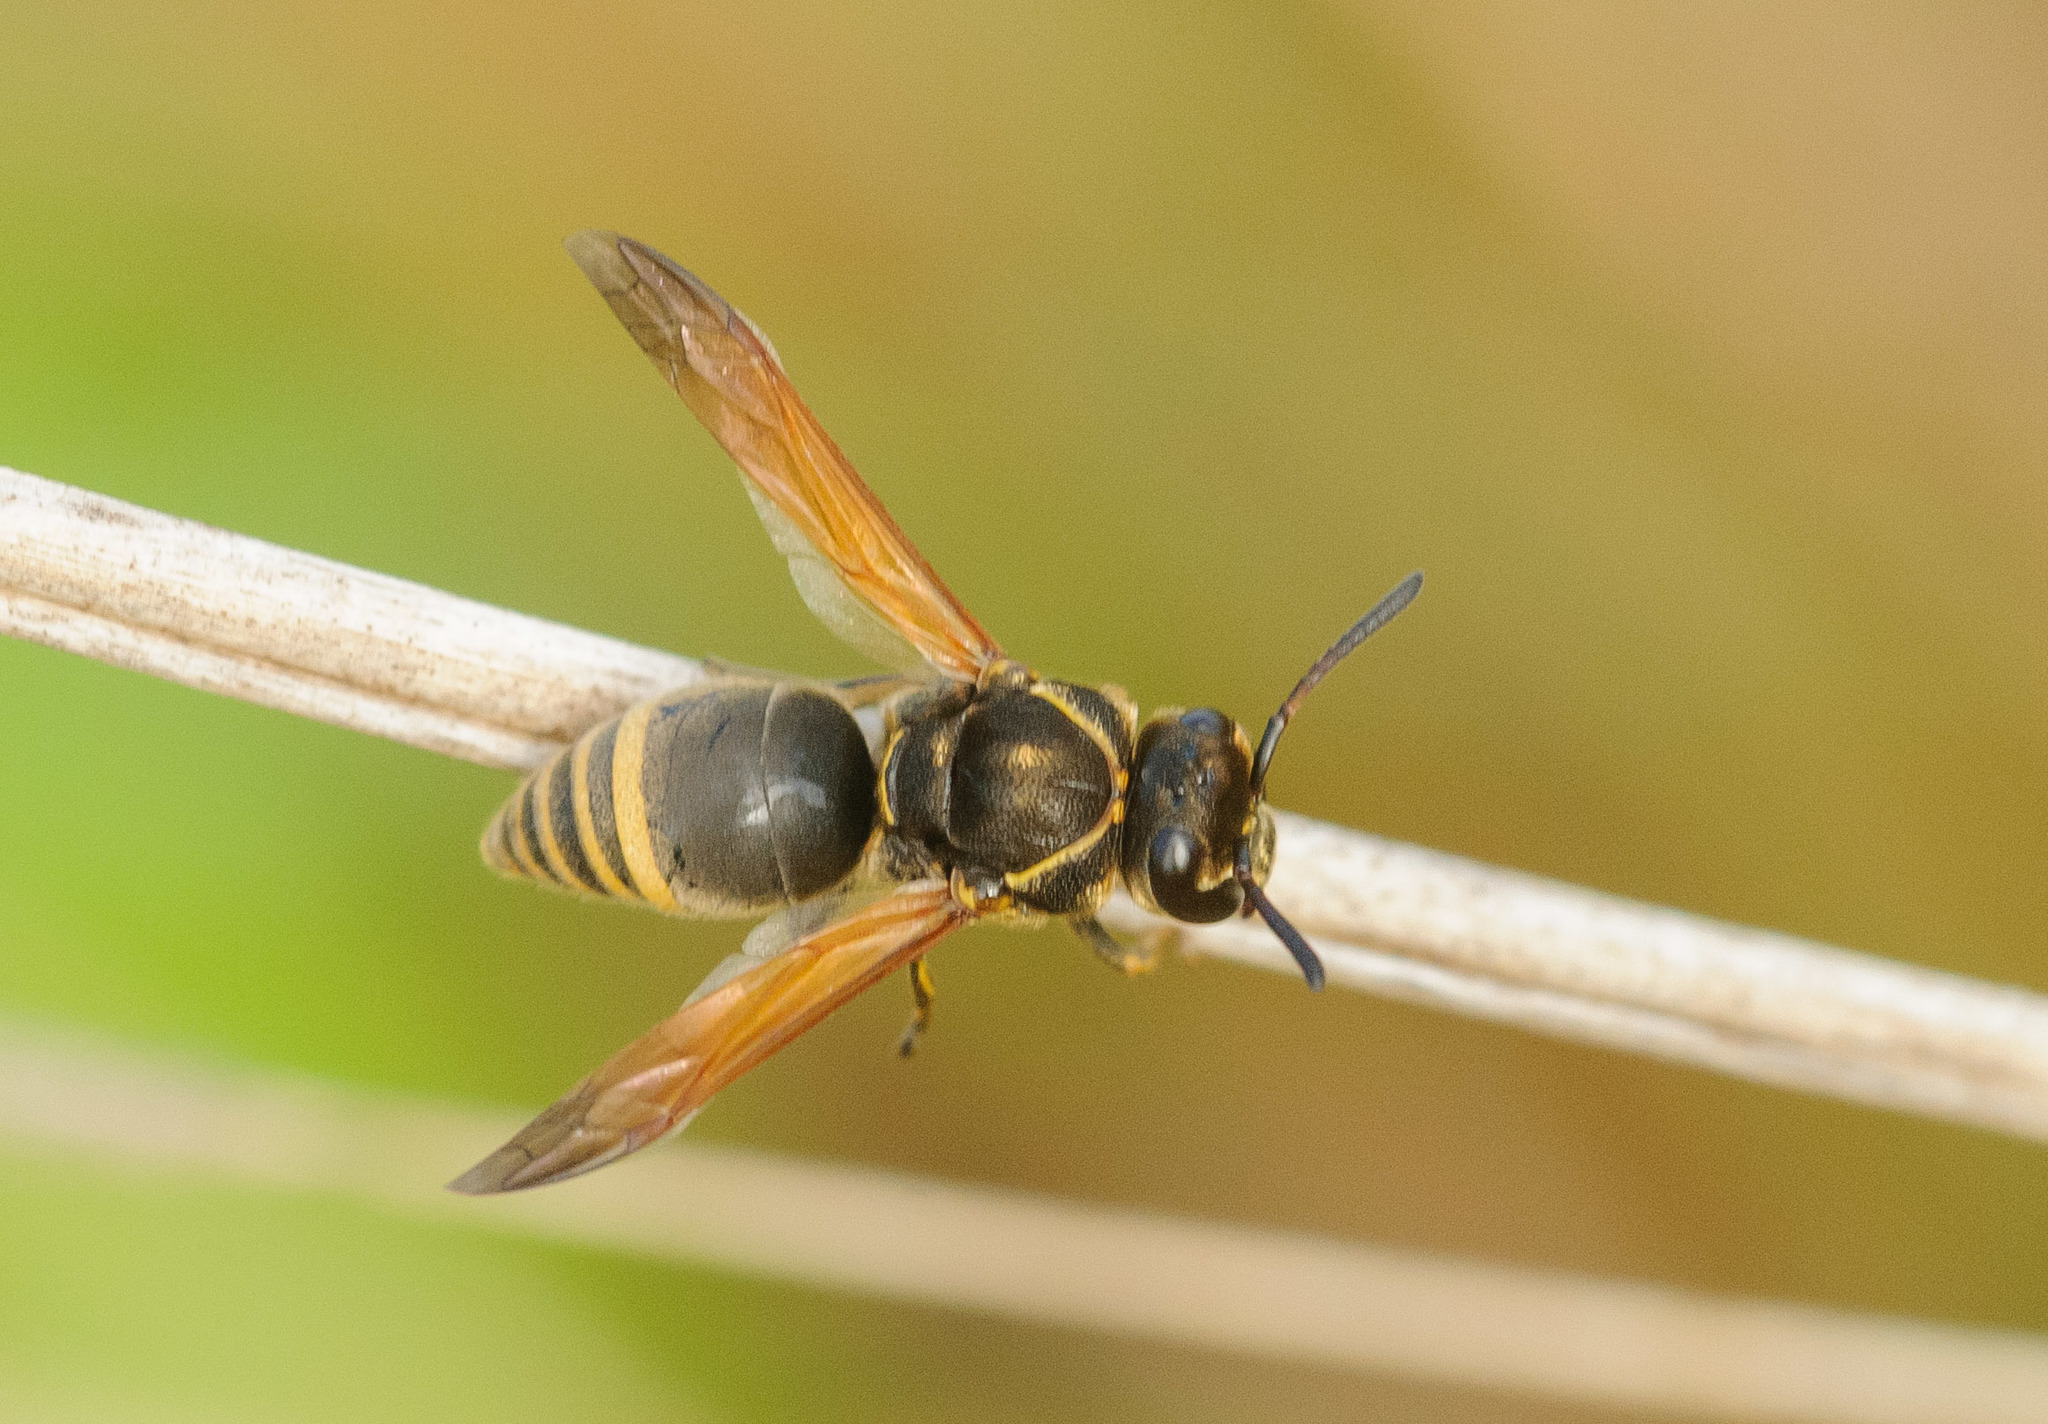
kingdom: Animalia
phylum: Arthropoda
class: Insecta
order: Hymenoptera
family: Eumenidae
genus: Pachodynerus
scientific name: Pachodynerus nasidens
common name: Key hole wasp
